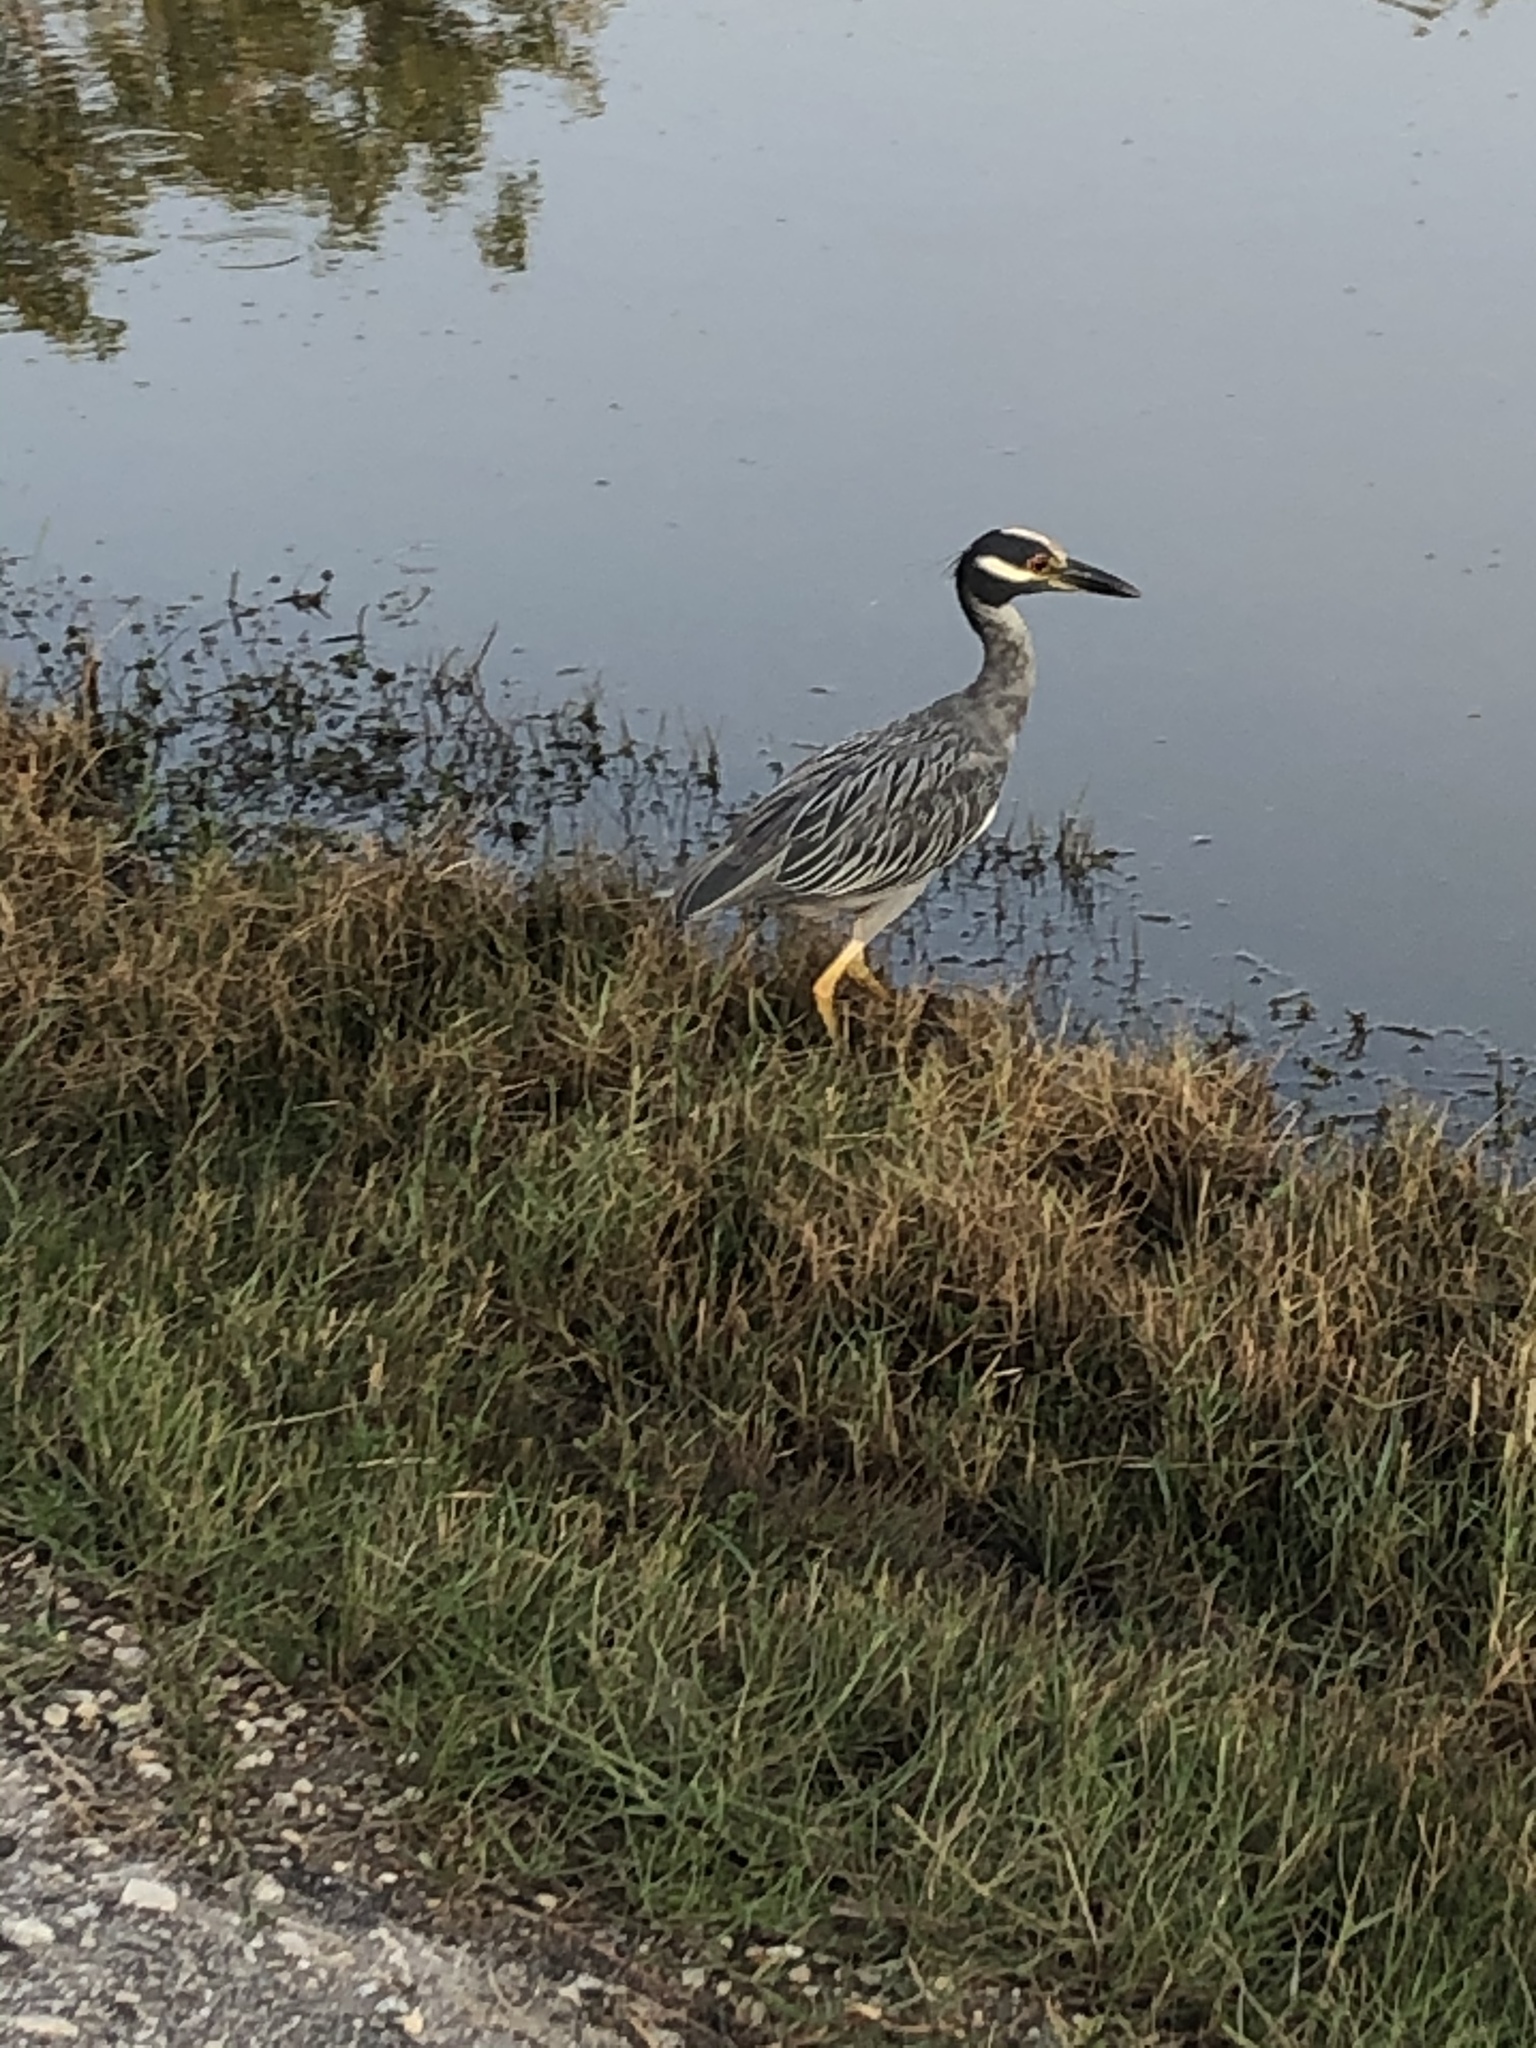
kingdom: Animalia
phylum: Chordata
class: Aves
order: Pelecaniformes
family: Ardeidae
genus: Nyctanassa
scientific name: Nyctanassa violacea
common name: Yellow-crowned night heron
